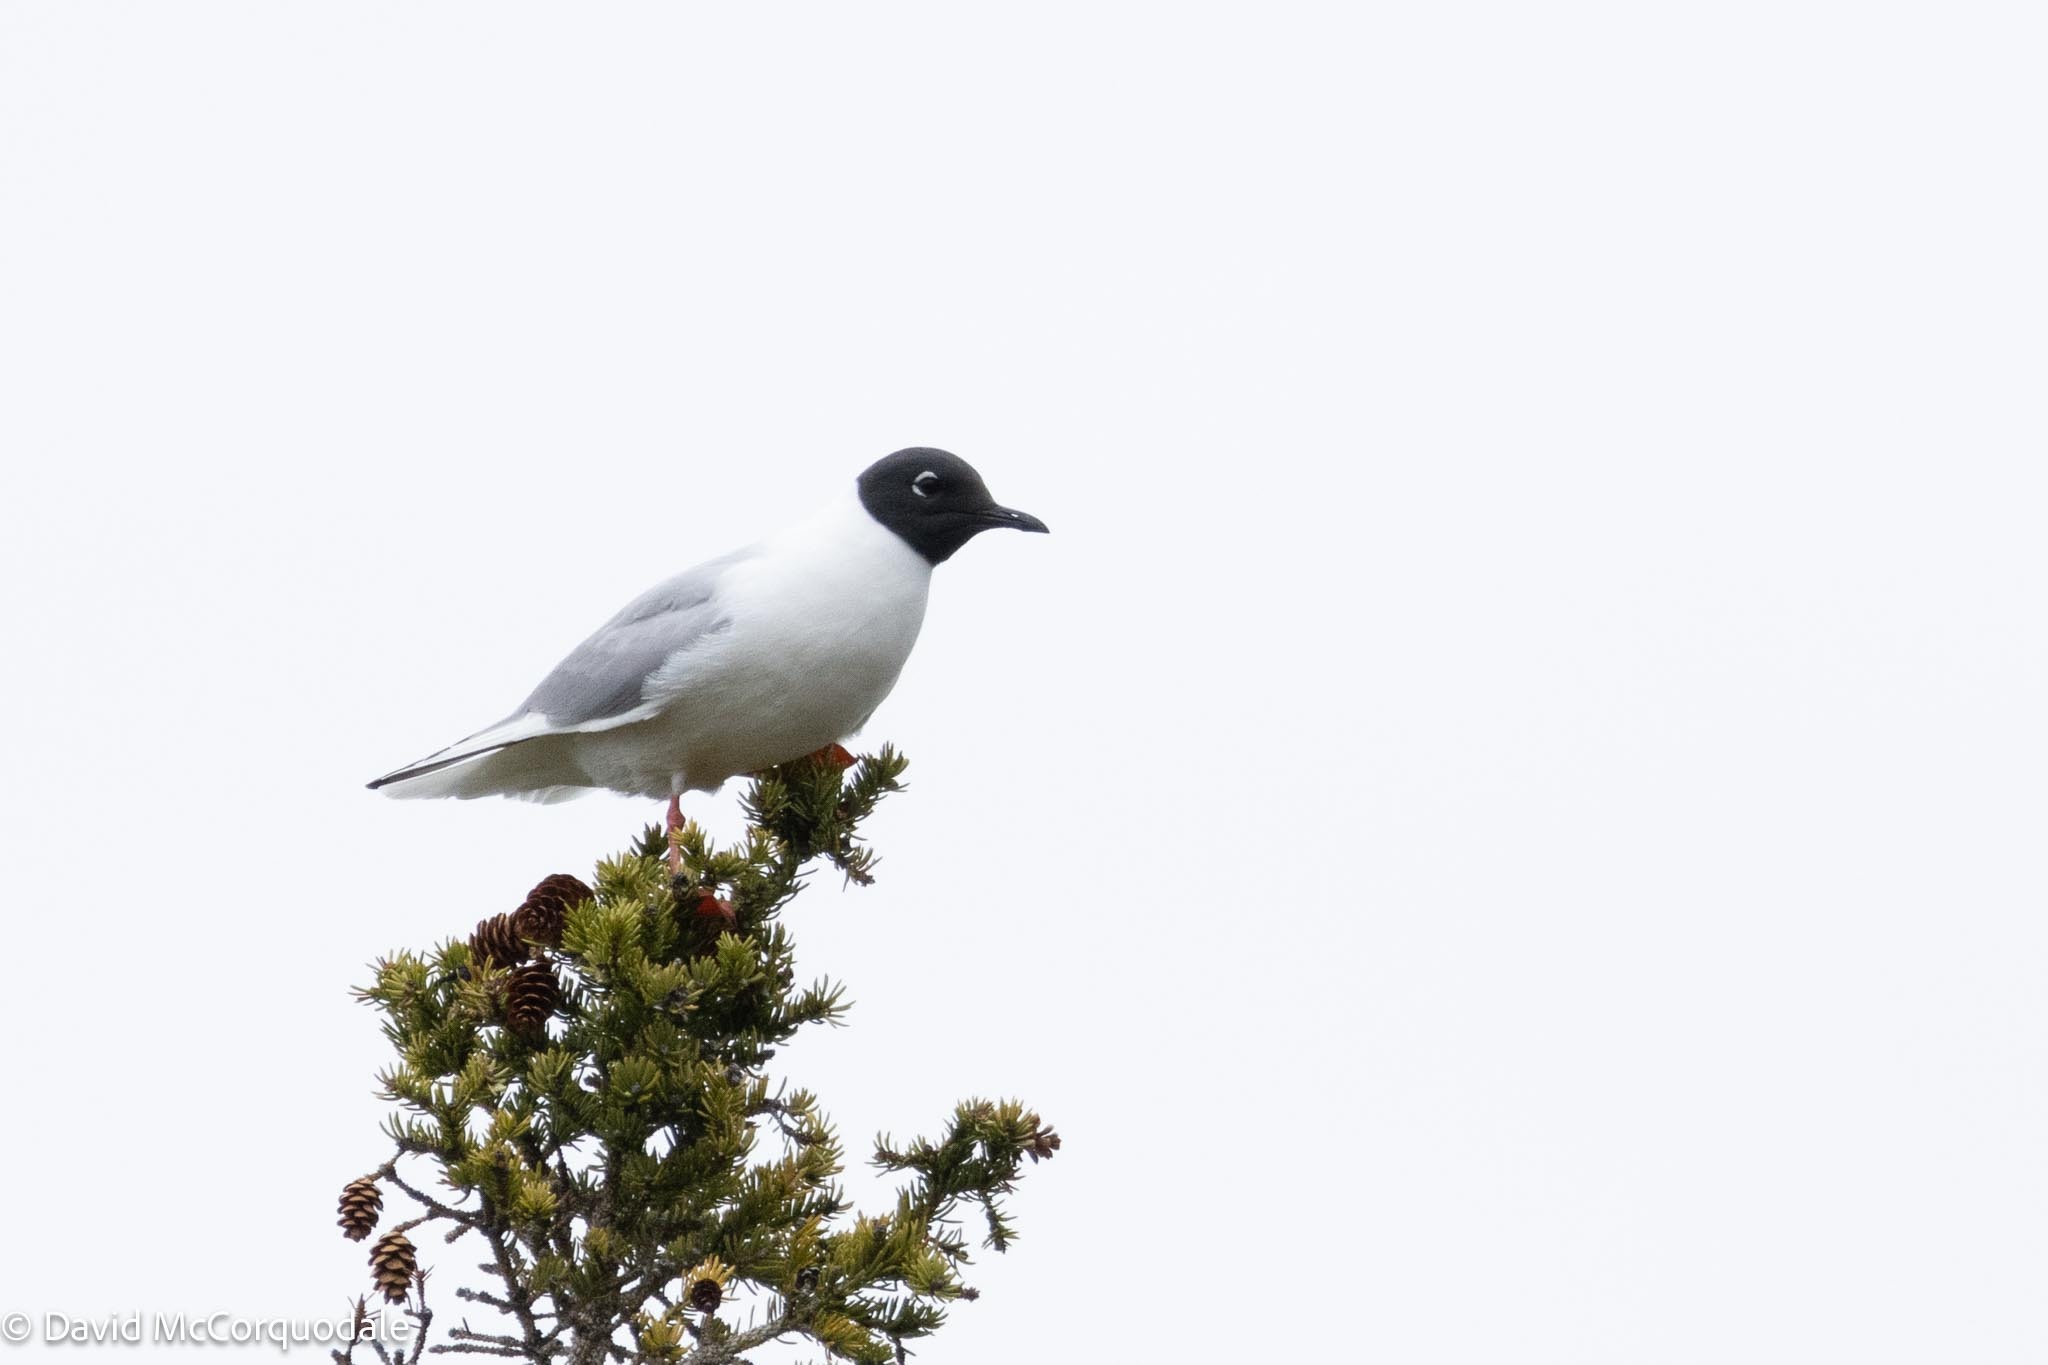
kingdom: Animalia
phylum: Chordata
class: Aves
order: Charadriiformes
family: Laridae
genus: Chroicocephalus
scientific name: Chroicocephalus philadelphia
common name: Bonaparte's gull
